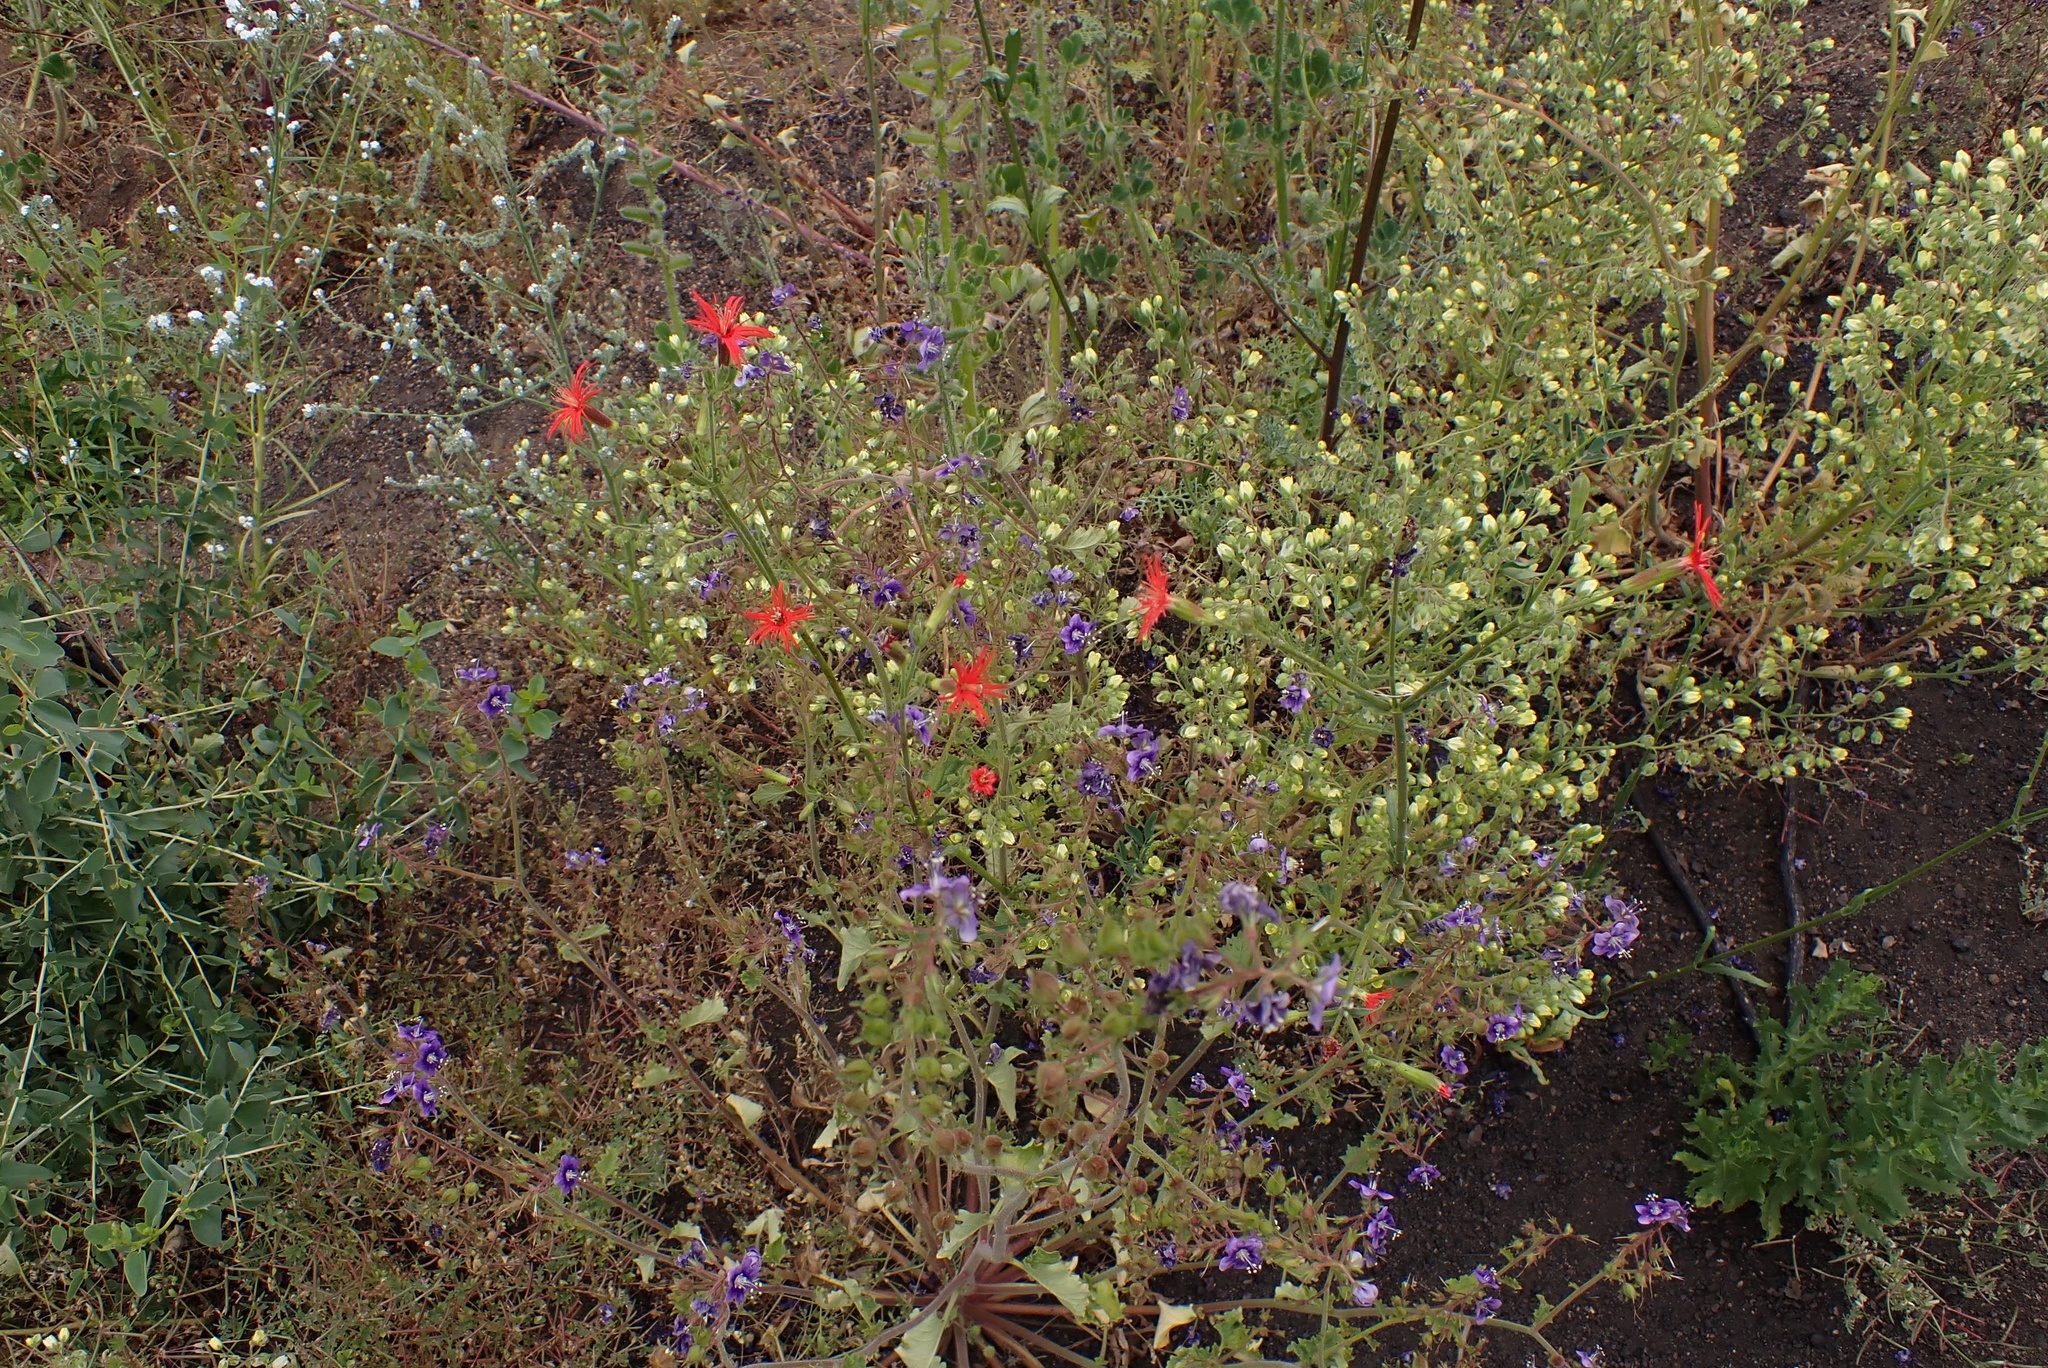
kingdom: Plantae
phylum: Tracheophyta
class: Magnoliopsida
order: Caryophyllales
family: Caryophyllaceae
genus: Silene
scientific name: Silene laciniata
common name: Indian-pink
